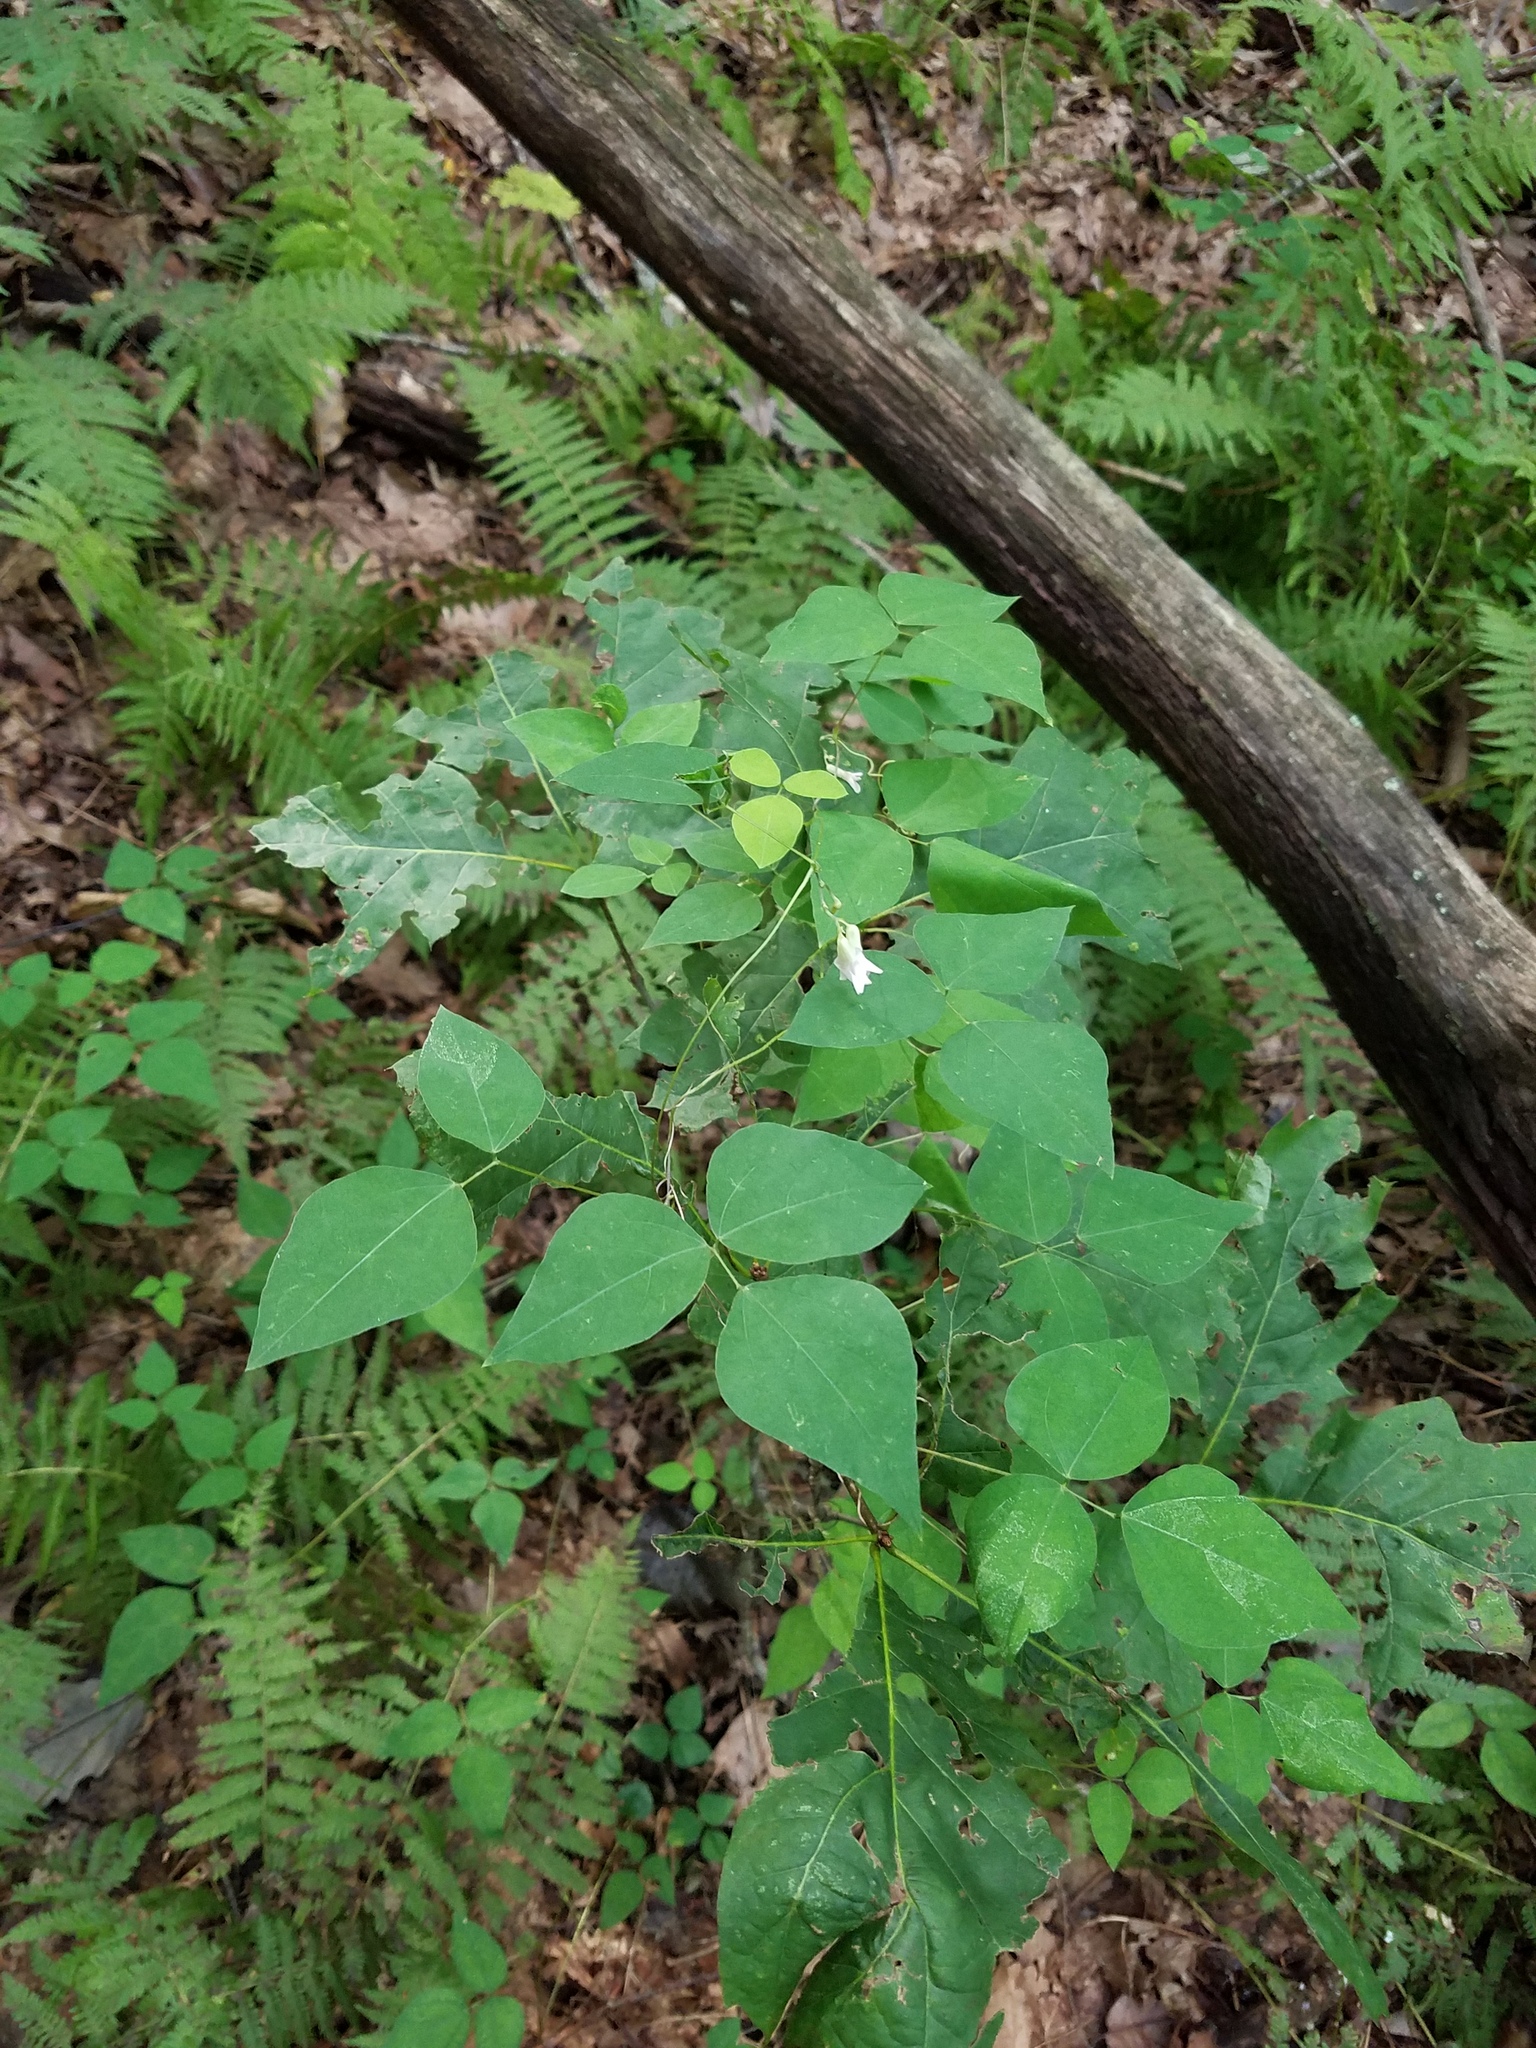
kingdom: Plantae
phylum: Tracheophyta
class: Magnoliopsida
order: Fabales
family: Fabaceae
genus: Amphicarpaea
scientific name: Amphicarpaea bracteata
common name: American hog peanut
